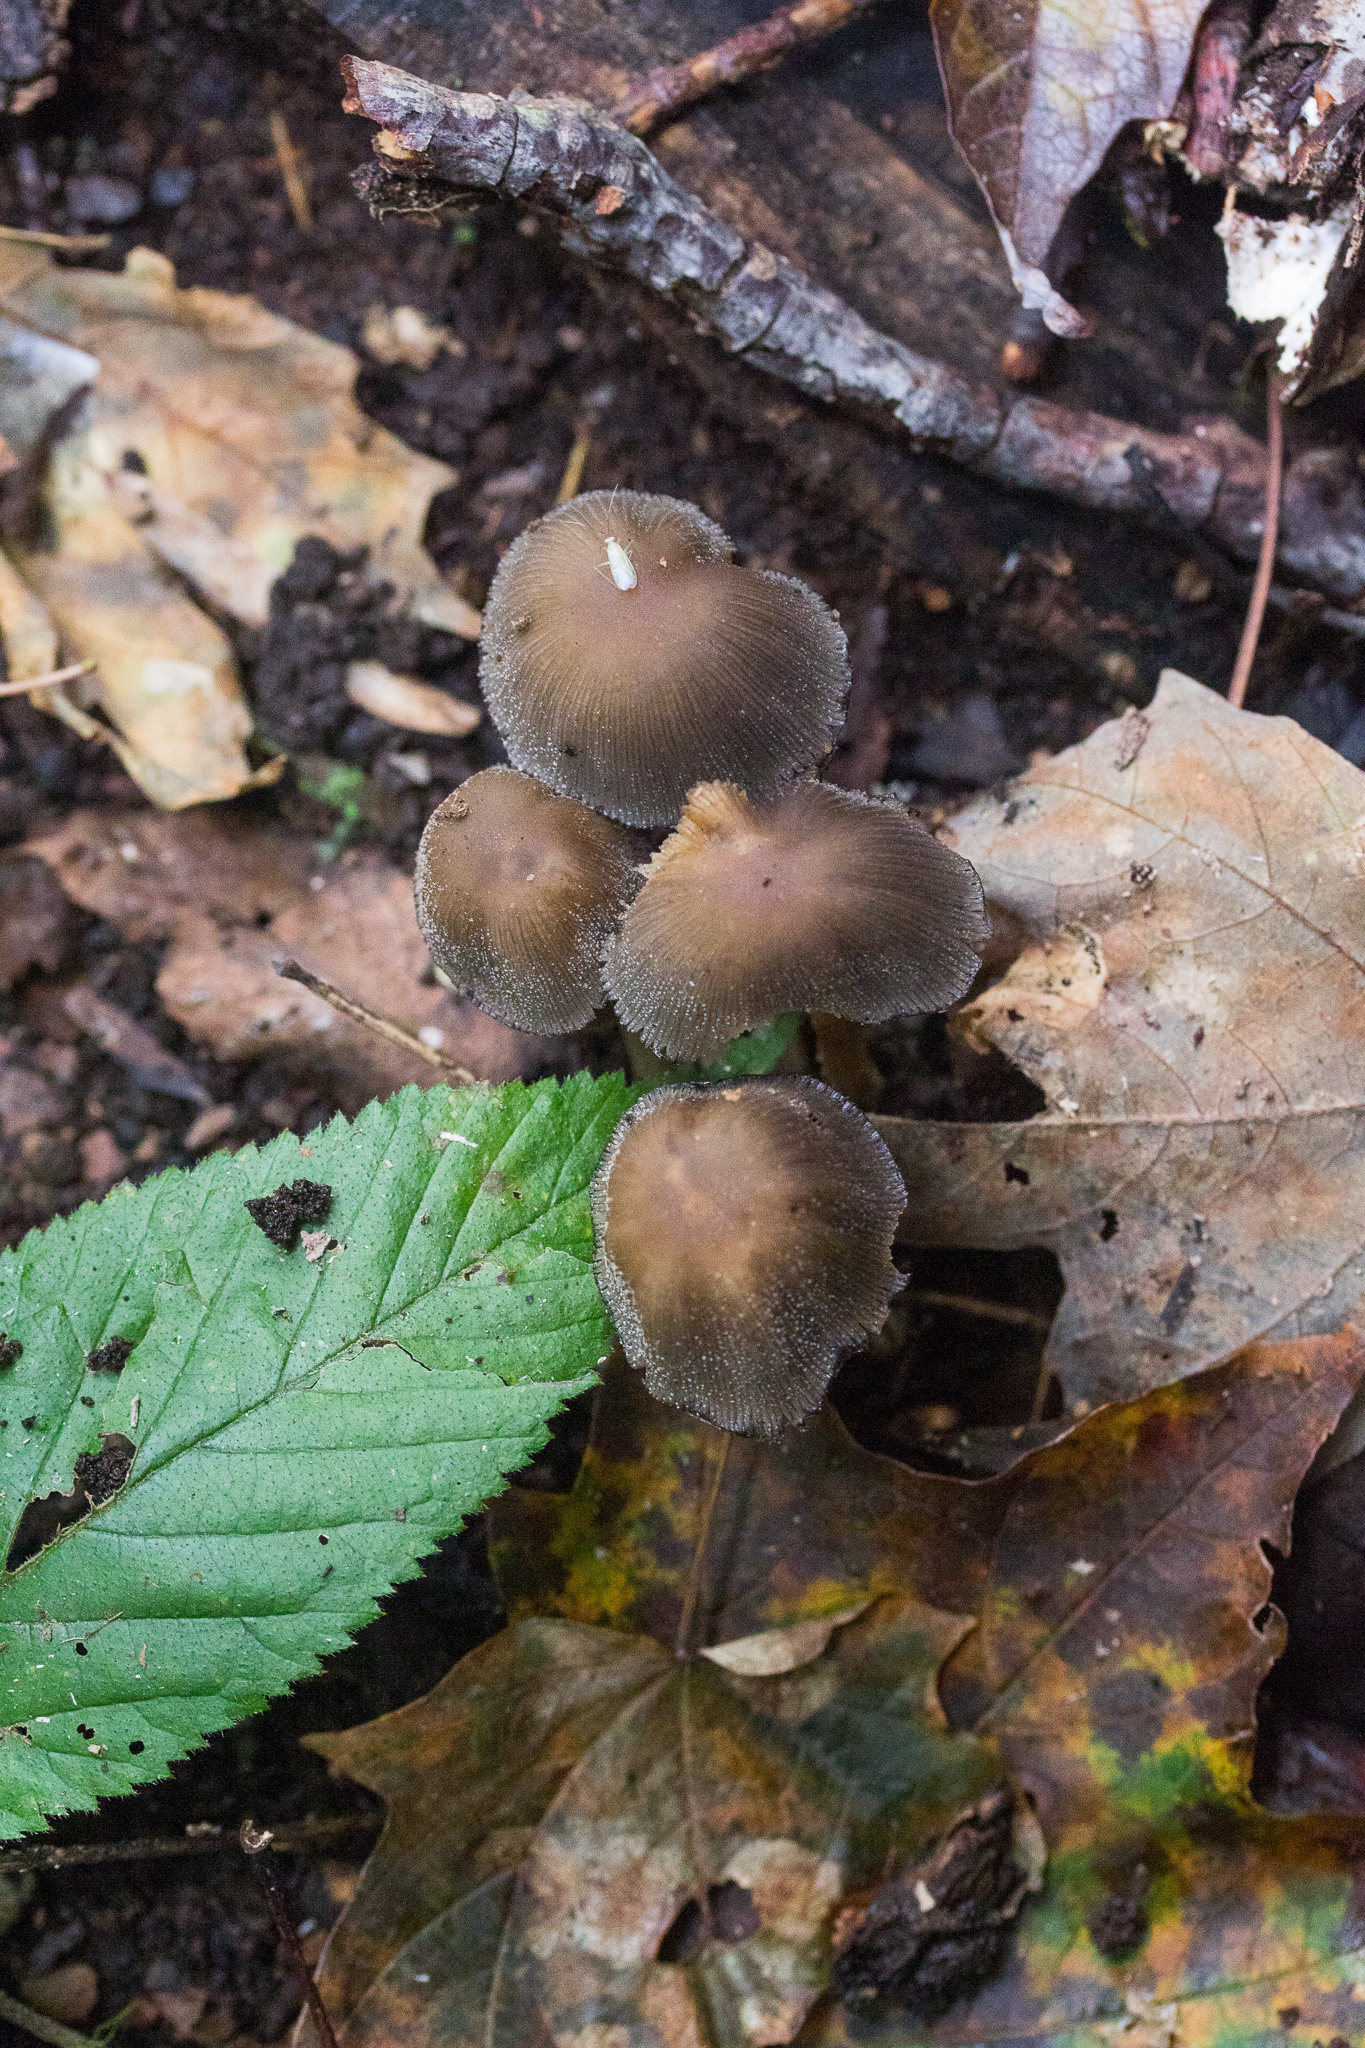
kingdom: Fungi
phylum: Basidiomycota
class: Agaricomycetes
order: Agaricales
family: Psathyrellaceae
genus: Coprinellus
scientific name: Coprinellus micaceus
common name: Glistening ink-cap
